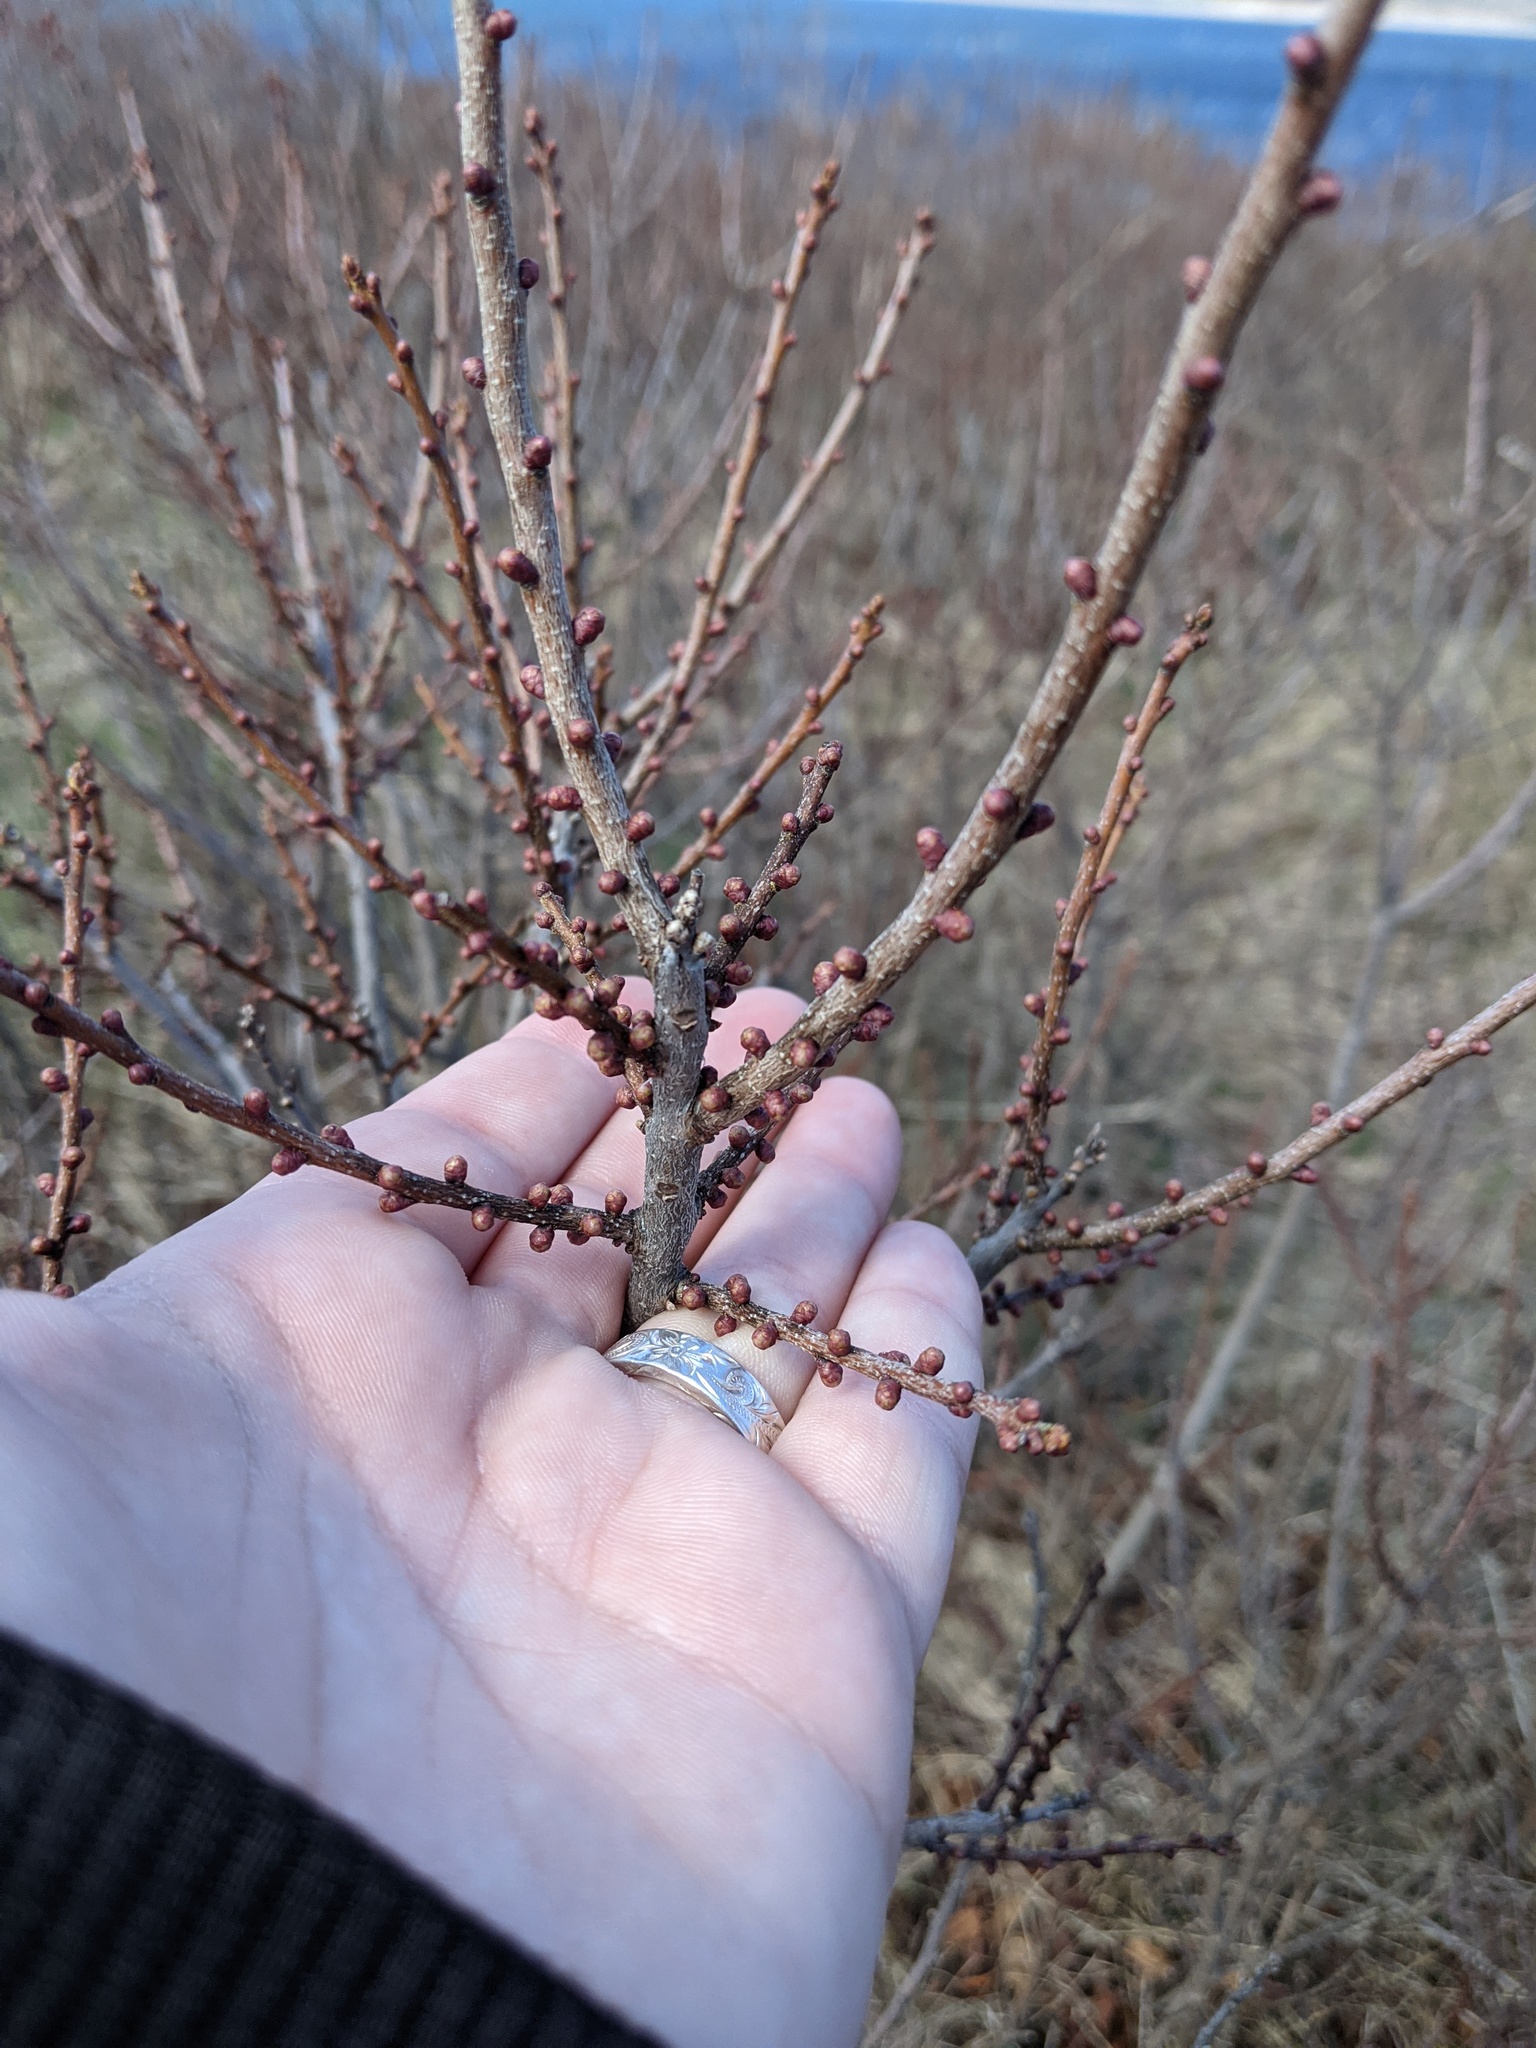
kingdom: Plantae
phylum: Tracheophyta
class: Magnoliopsida
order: Fagales
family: Myricaceae
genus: Morella
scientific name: Morella pensylvanica
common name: Northern bayberry
